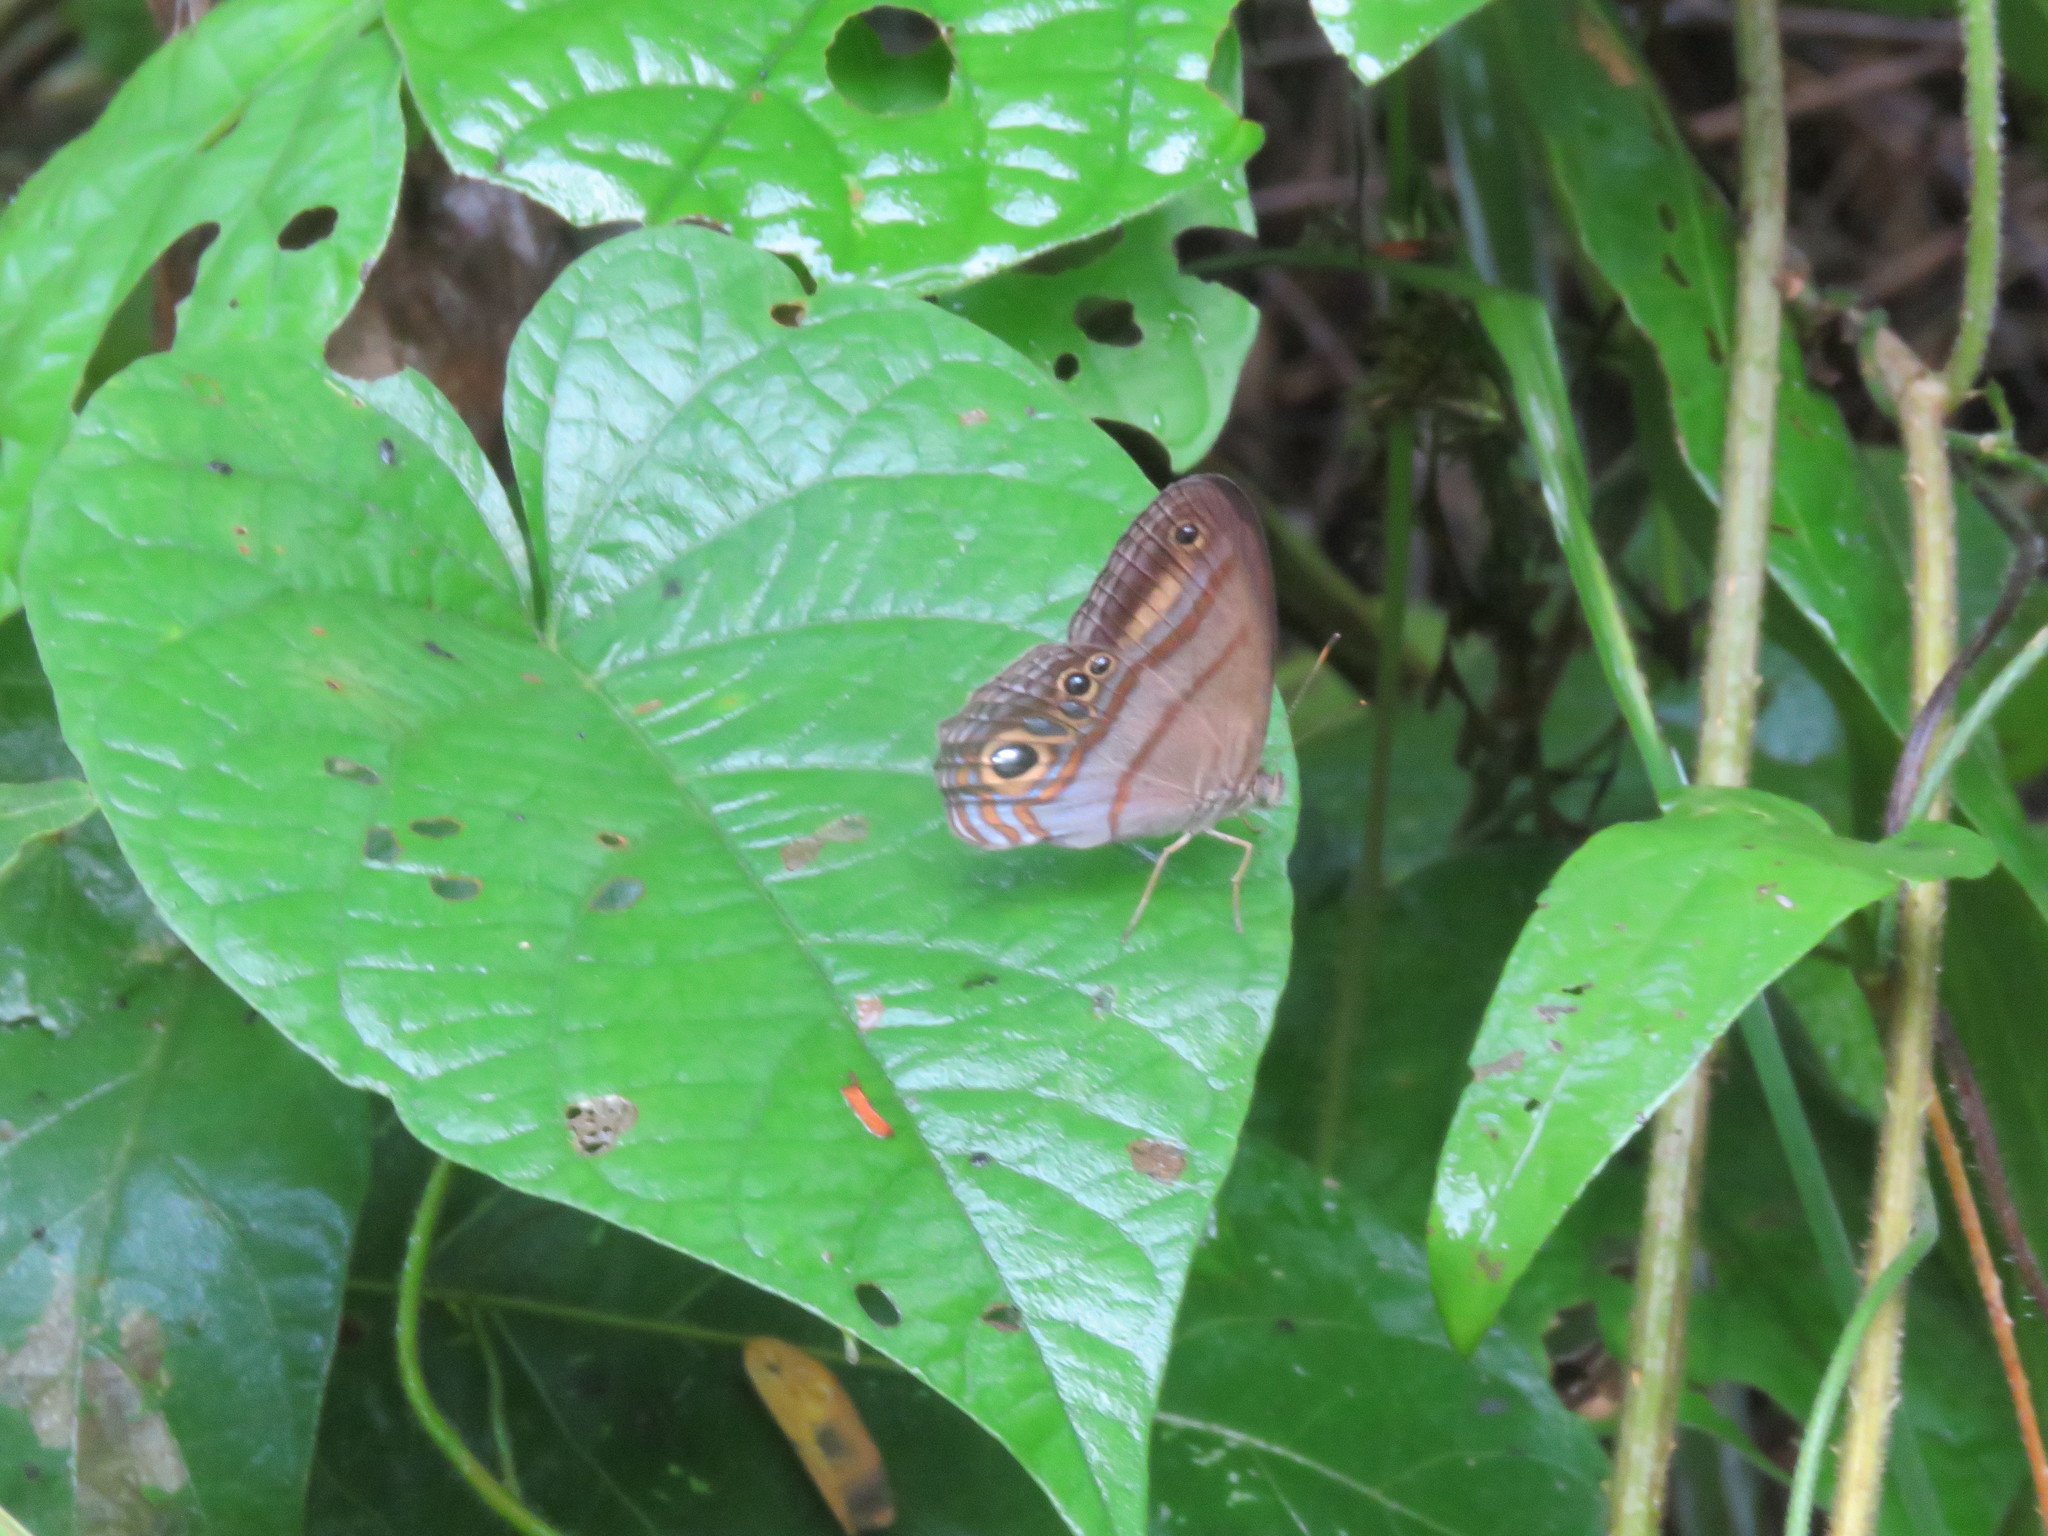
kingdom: Animalia
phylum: Arthropoda
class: Insecta
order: Lepidoptera
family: Nymphalidae
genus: Lazulina
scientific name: Lazulina
